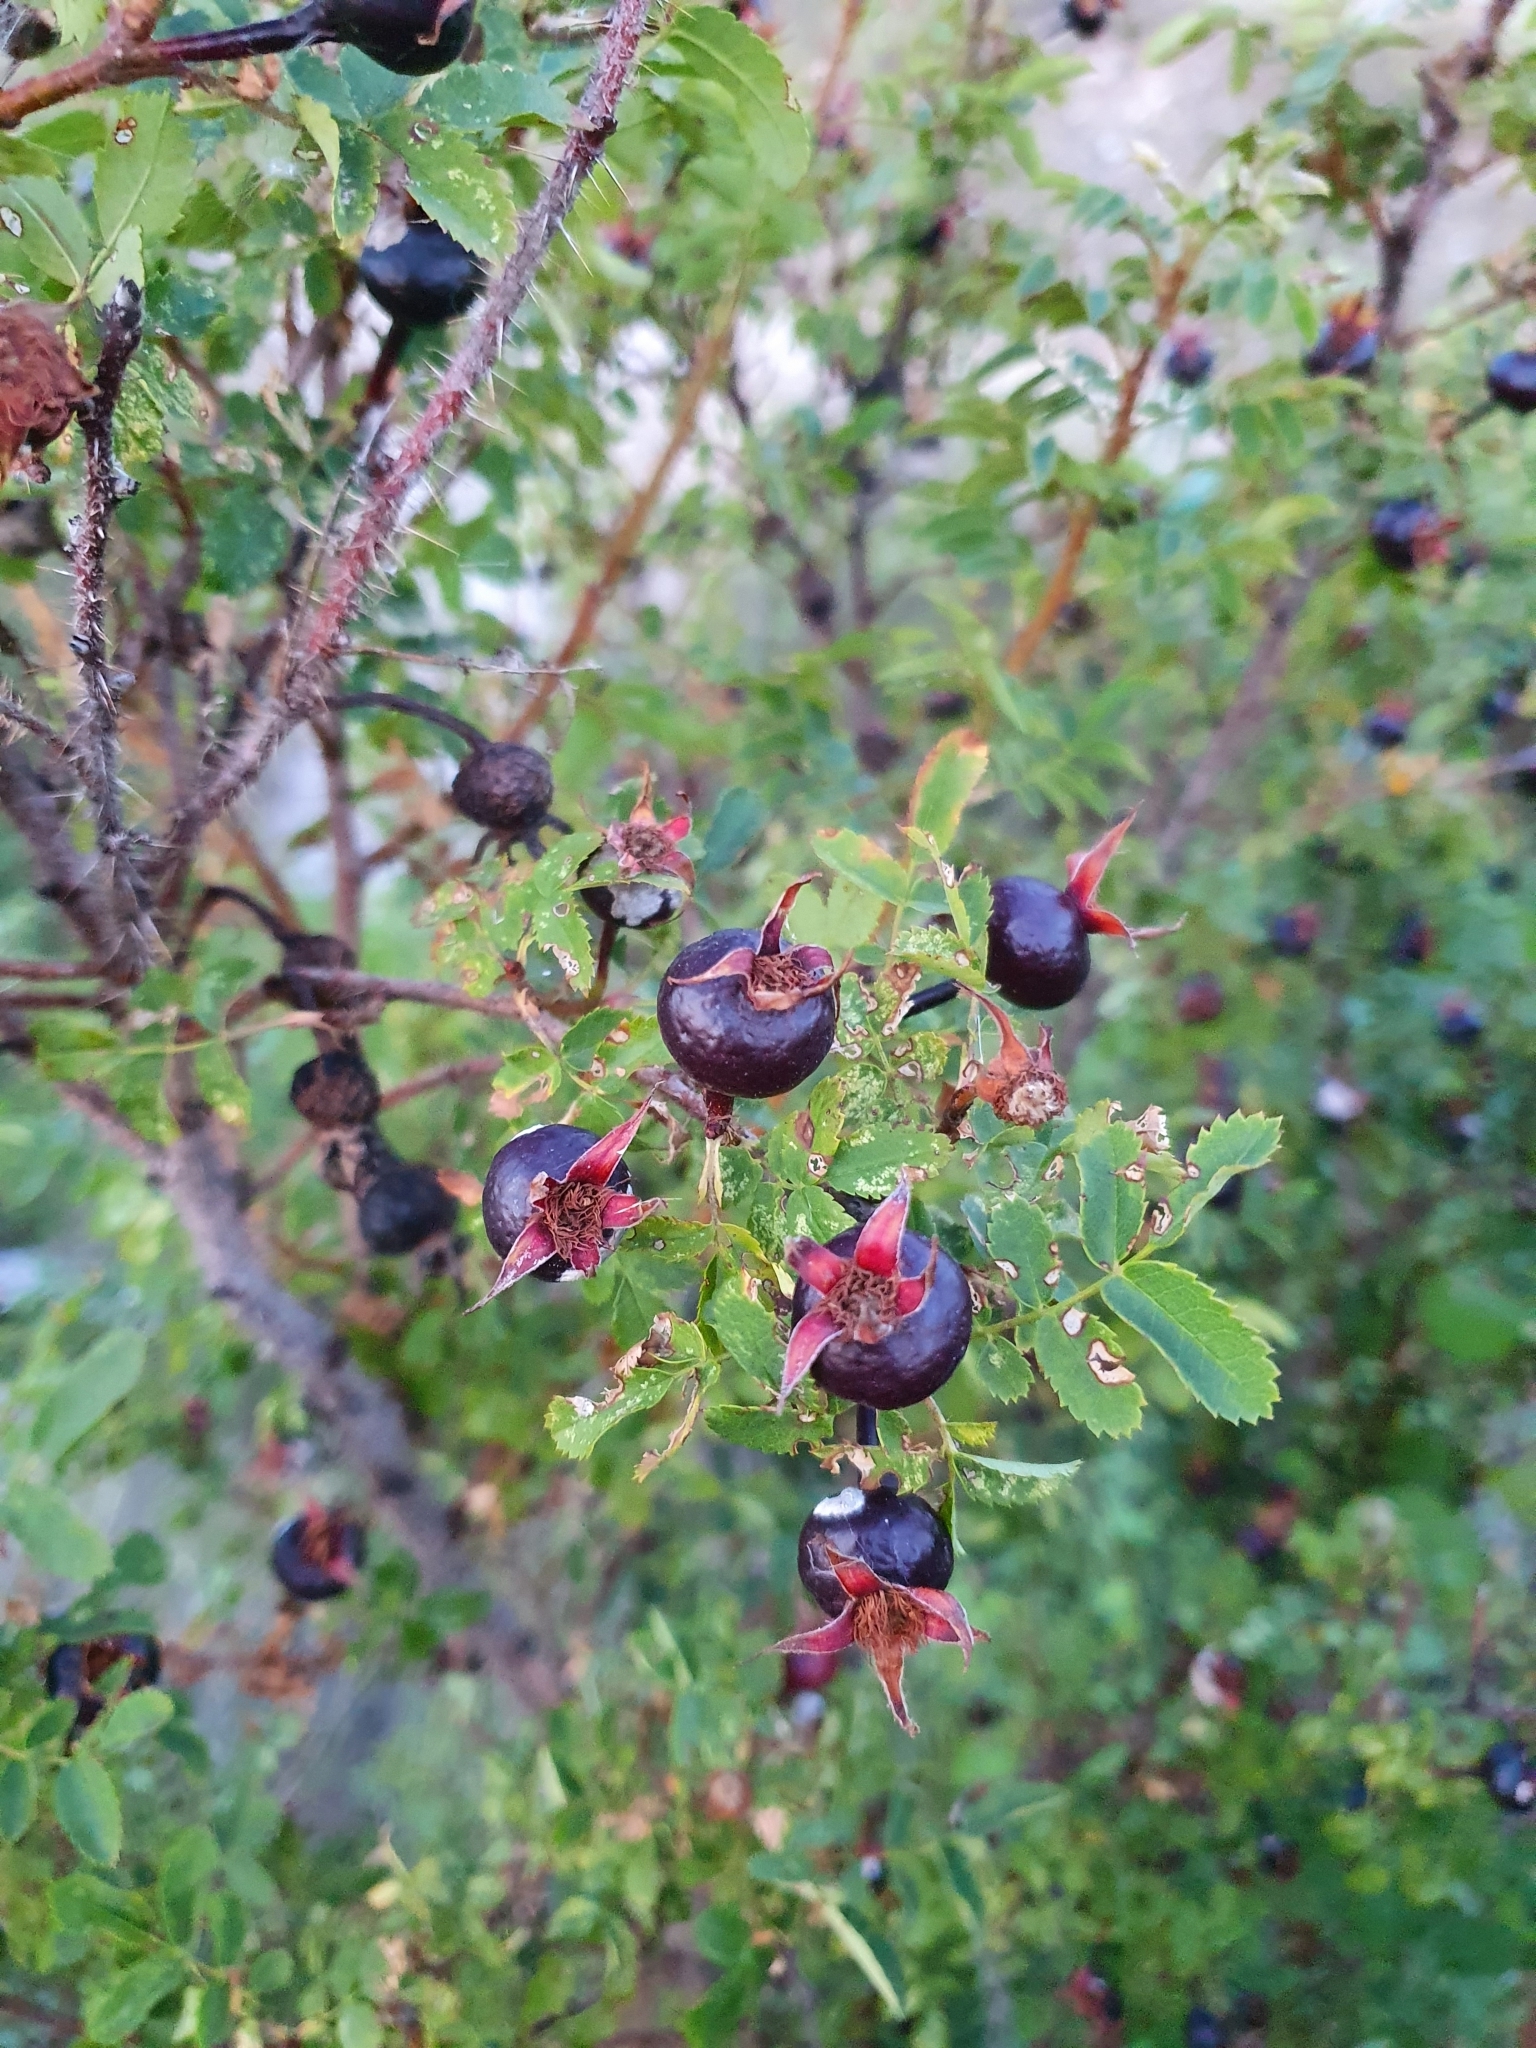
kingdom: Plantae
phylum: Tracheophyta
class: Magnoliopsida
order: Rosales
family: Rosaceae
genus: Rosa
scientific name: Rosa spinosissima
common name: Burnet rose
